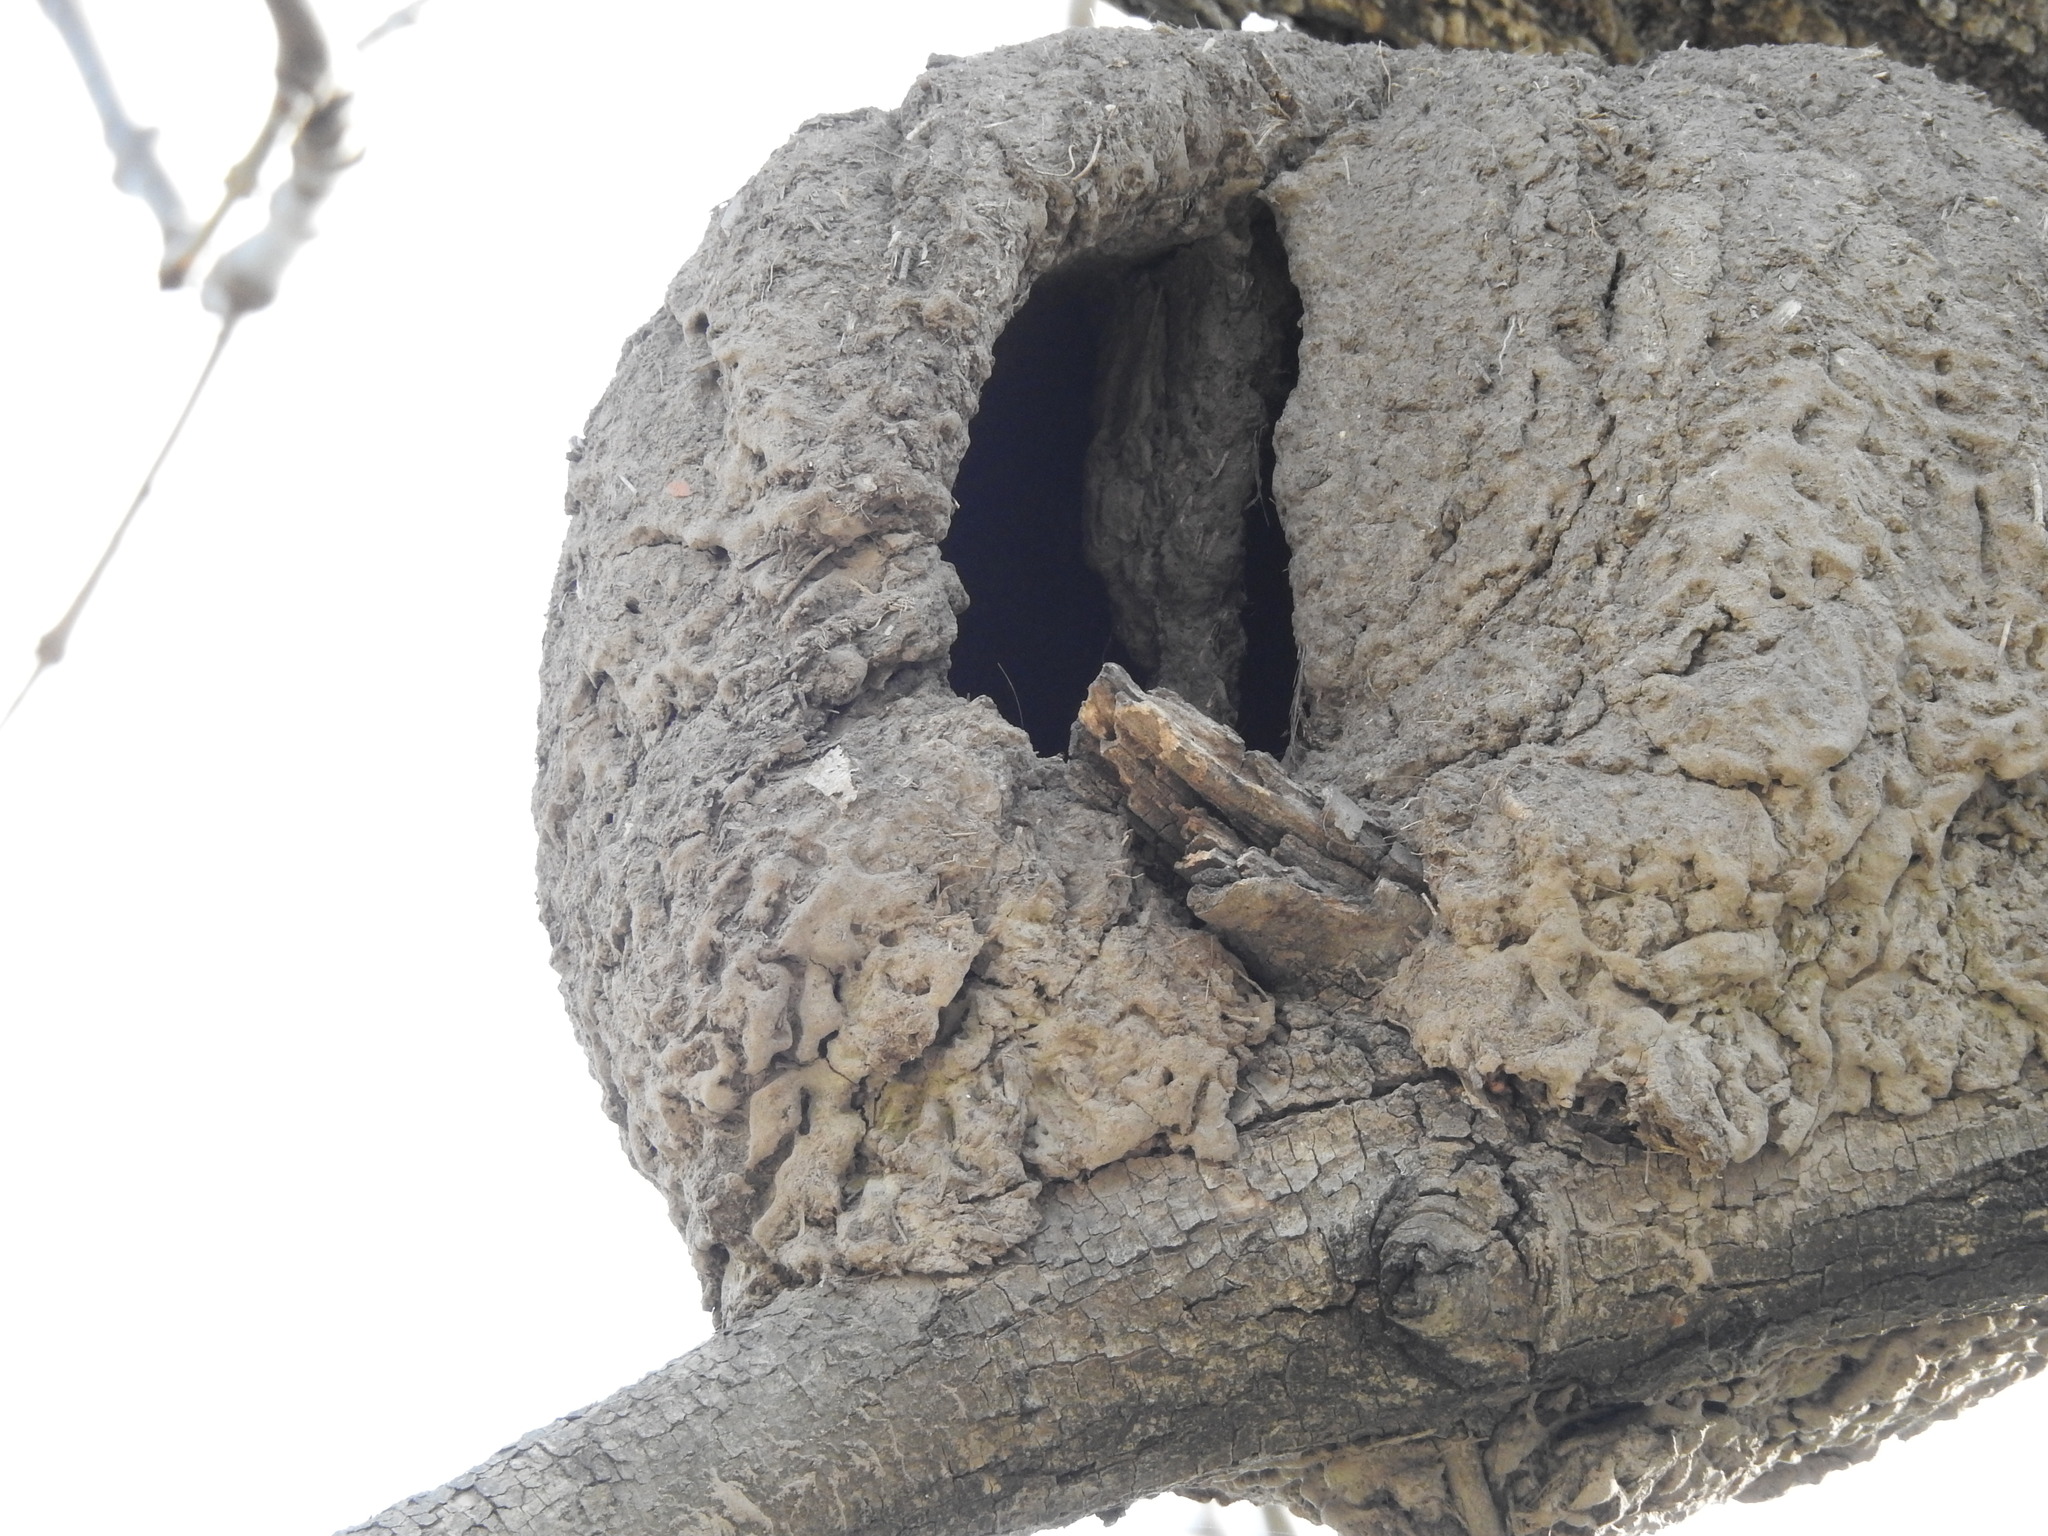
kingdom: Animalia
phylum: Chordata
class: Aves
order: Passeriformes
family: Furnariidae
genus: Furnarius
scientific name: Furnarius rufus
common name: Rufous hornero
